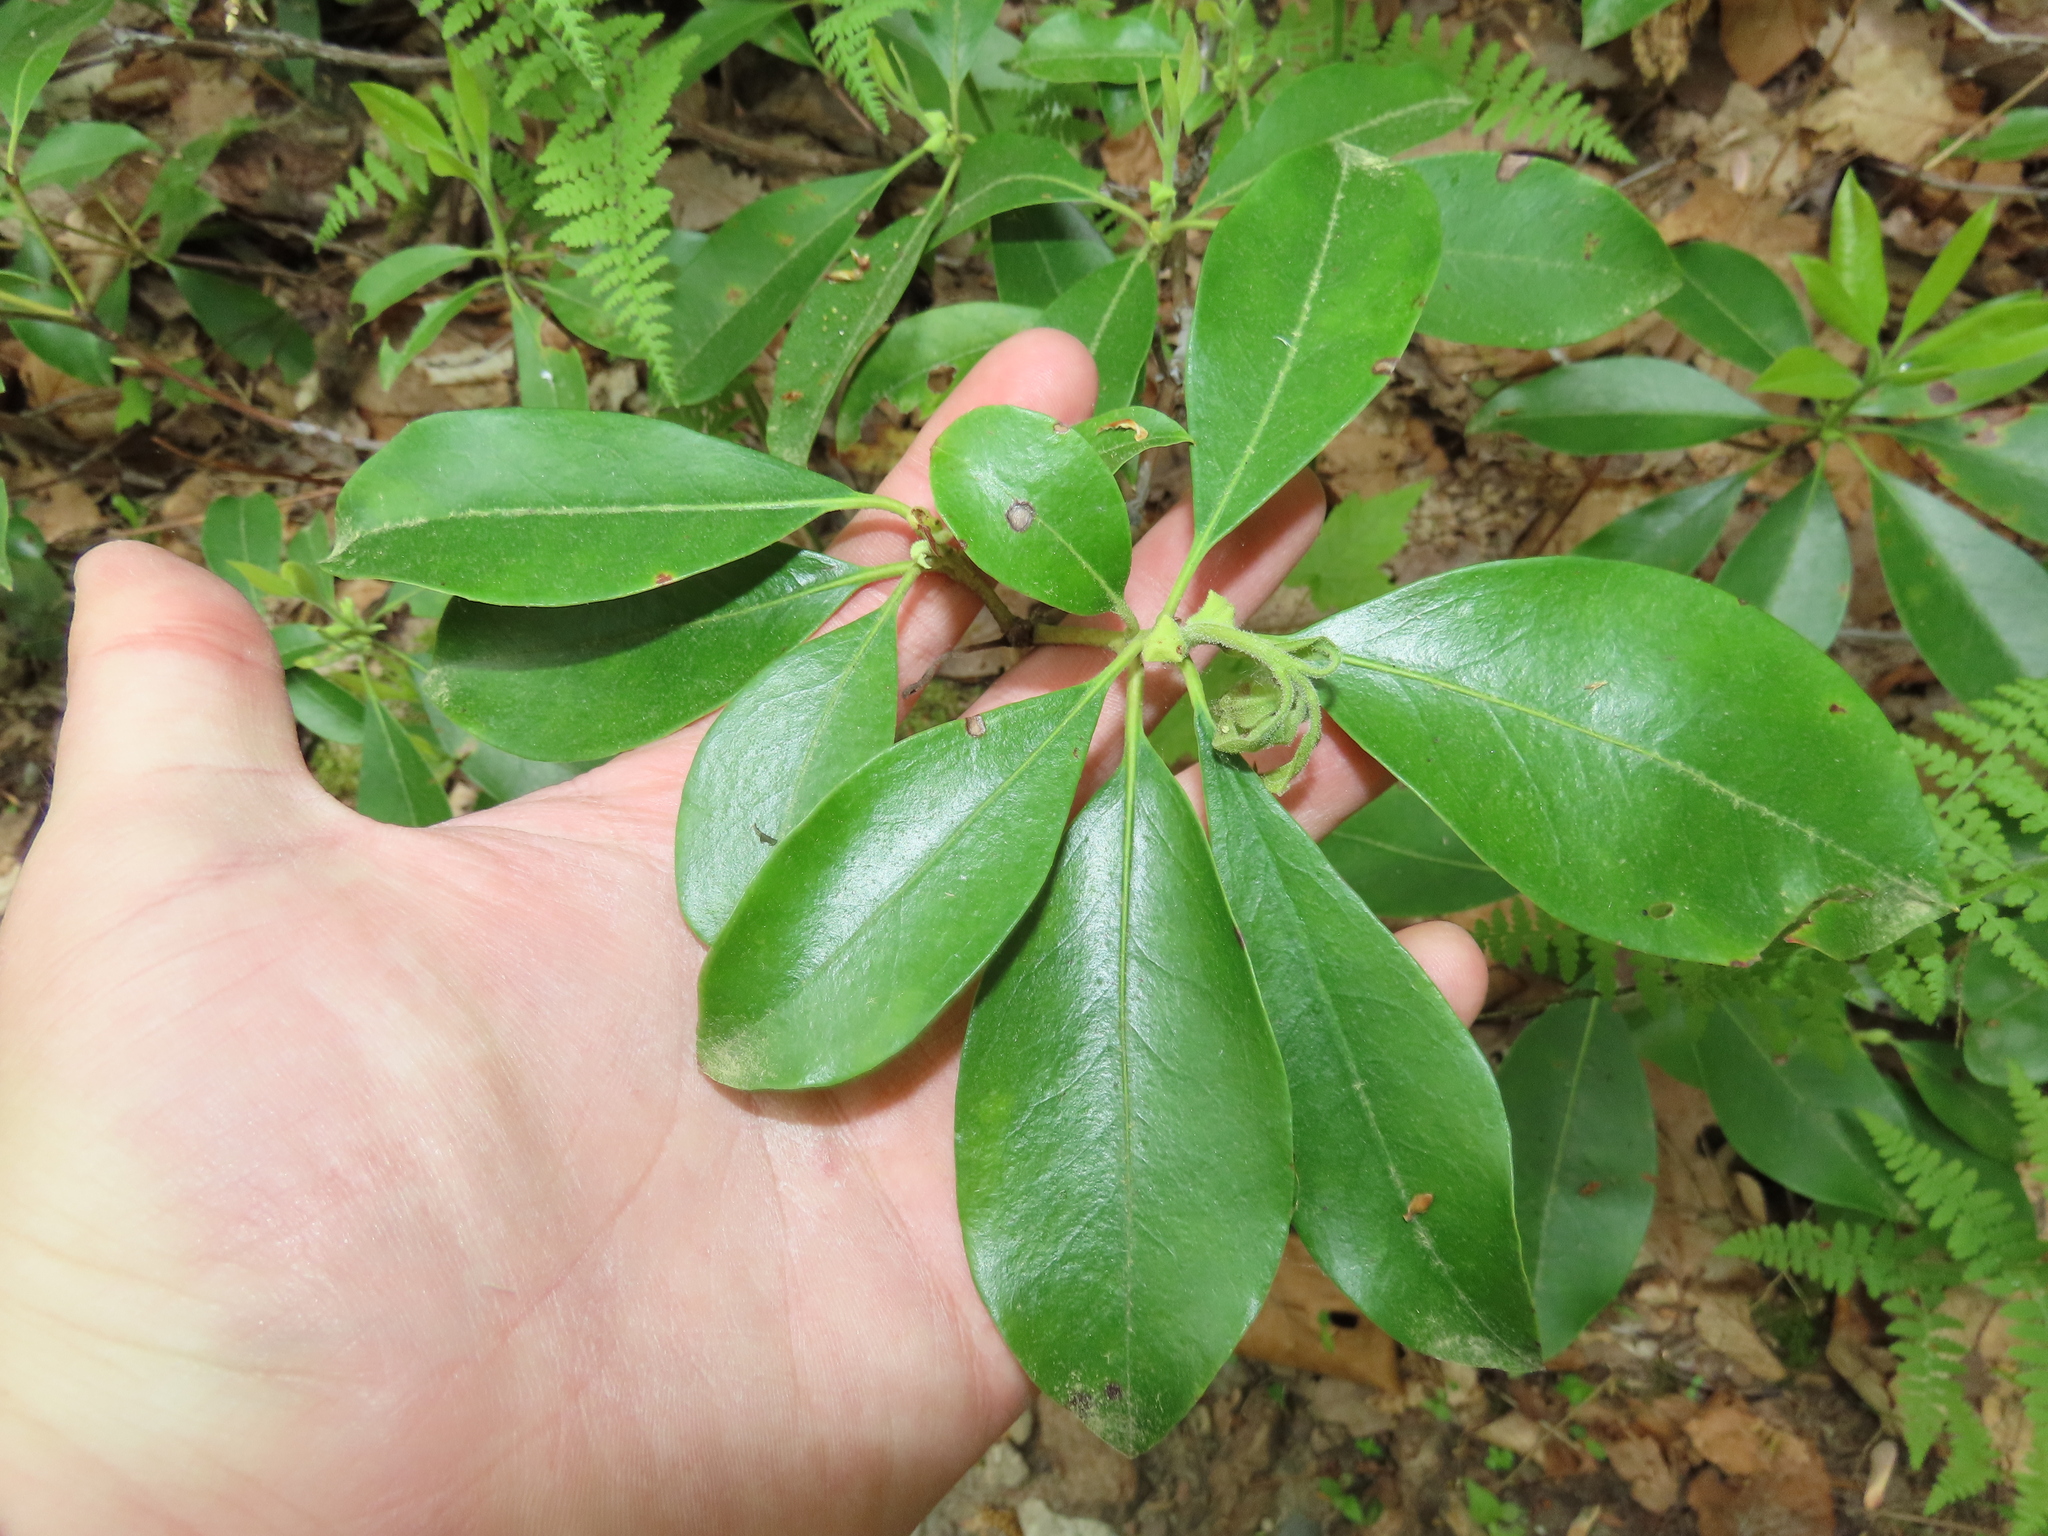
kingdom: Plantae
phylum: Tracheophyta
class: Magnoliopsida
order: Ericales
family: Ericaceae
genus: Kalmia
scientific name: Kalmia latifolia
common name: Mountain-laurel
